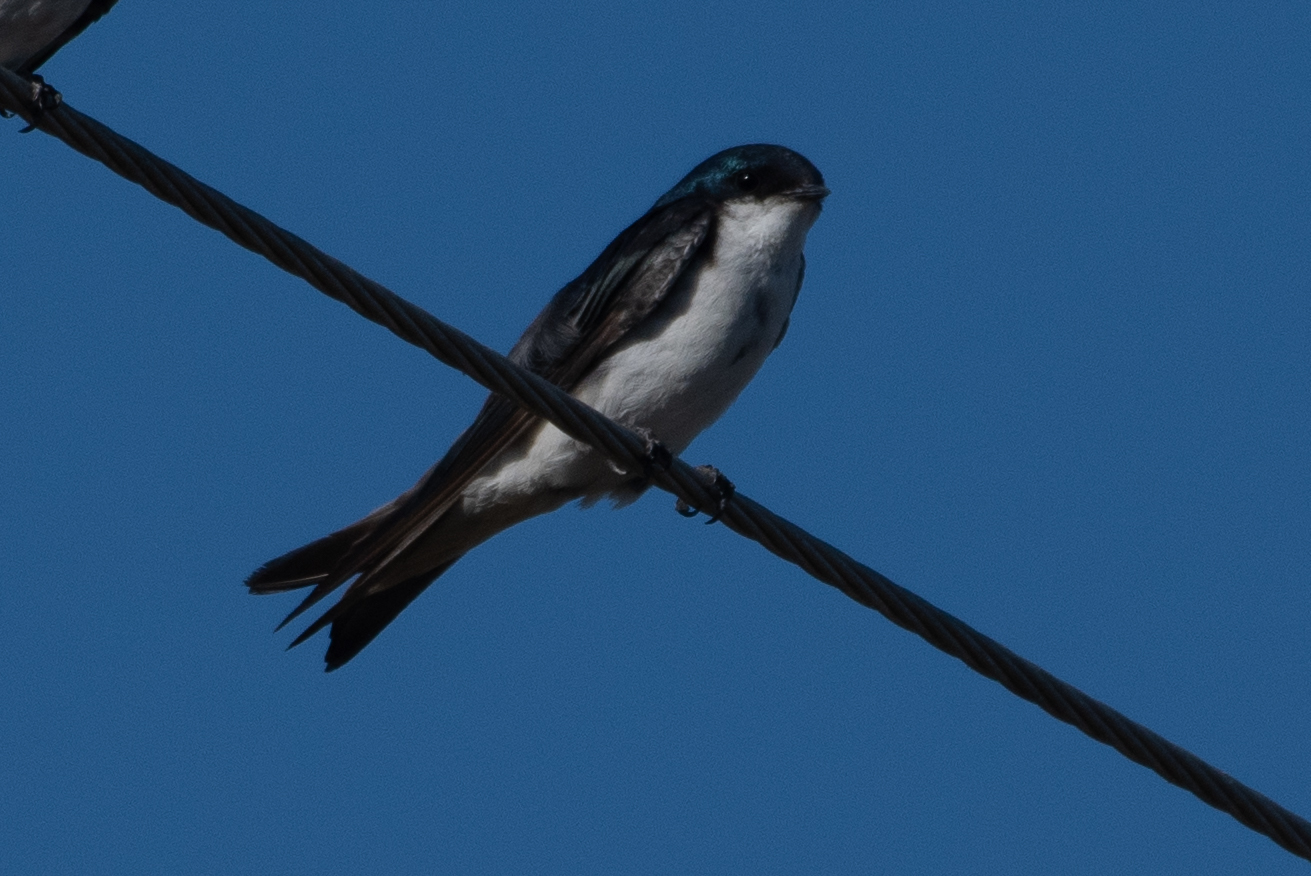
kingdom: Animalia
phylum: Chordata
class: Aves
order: Passeriformes
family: Hirundinidae
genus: Tachycineta
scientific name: Tachycineta bicolor
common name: Tree swallow
